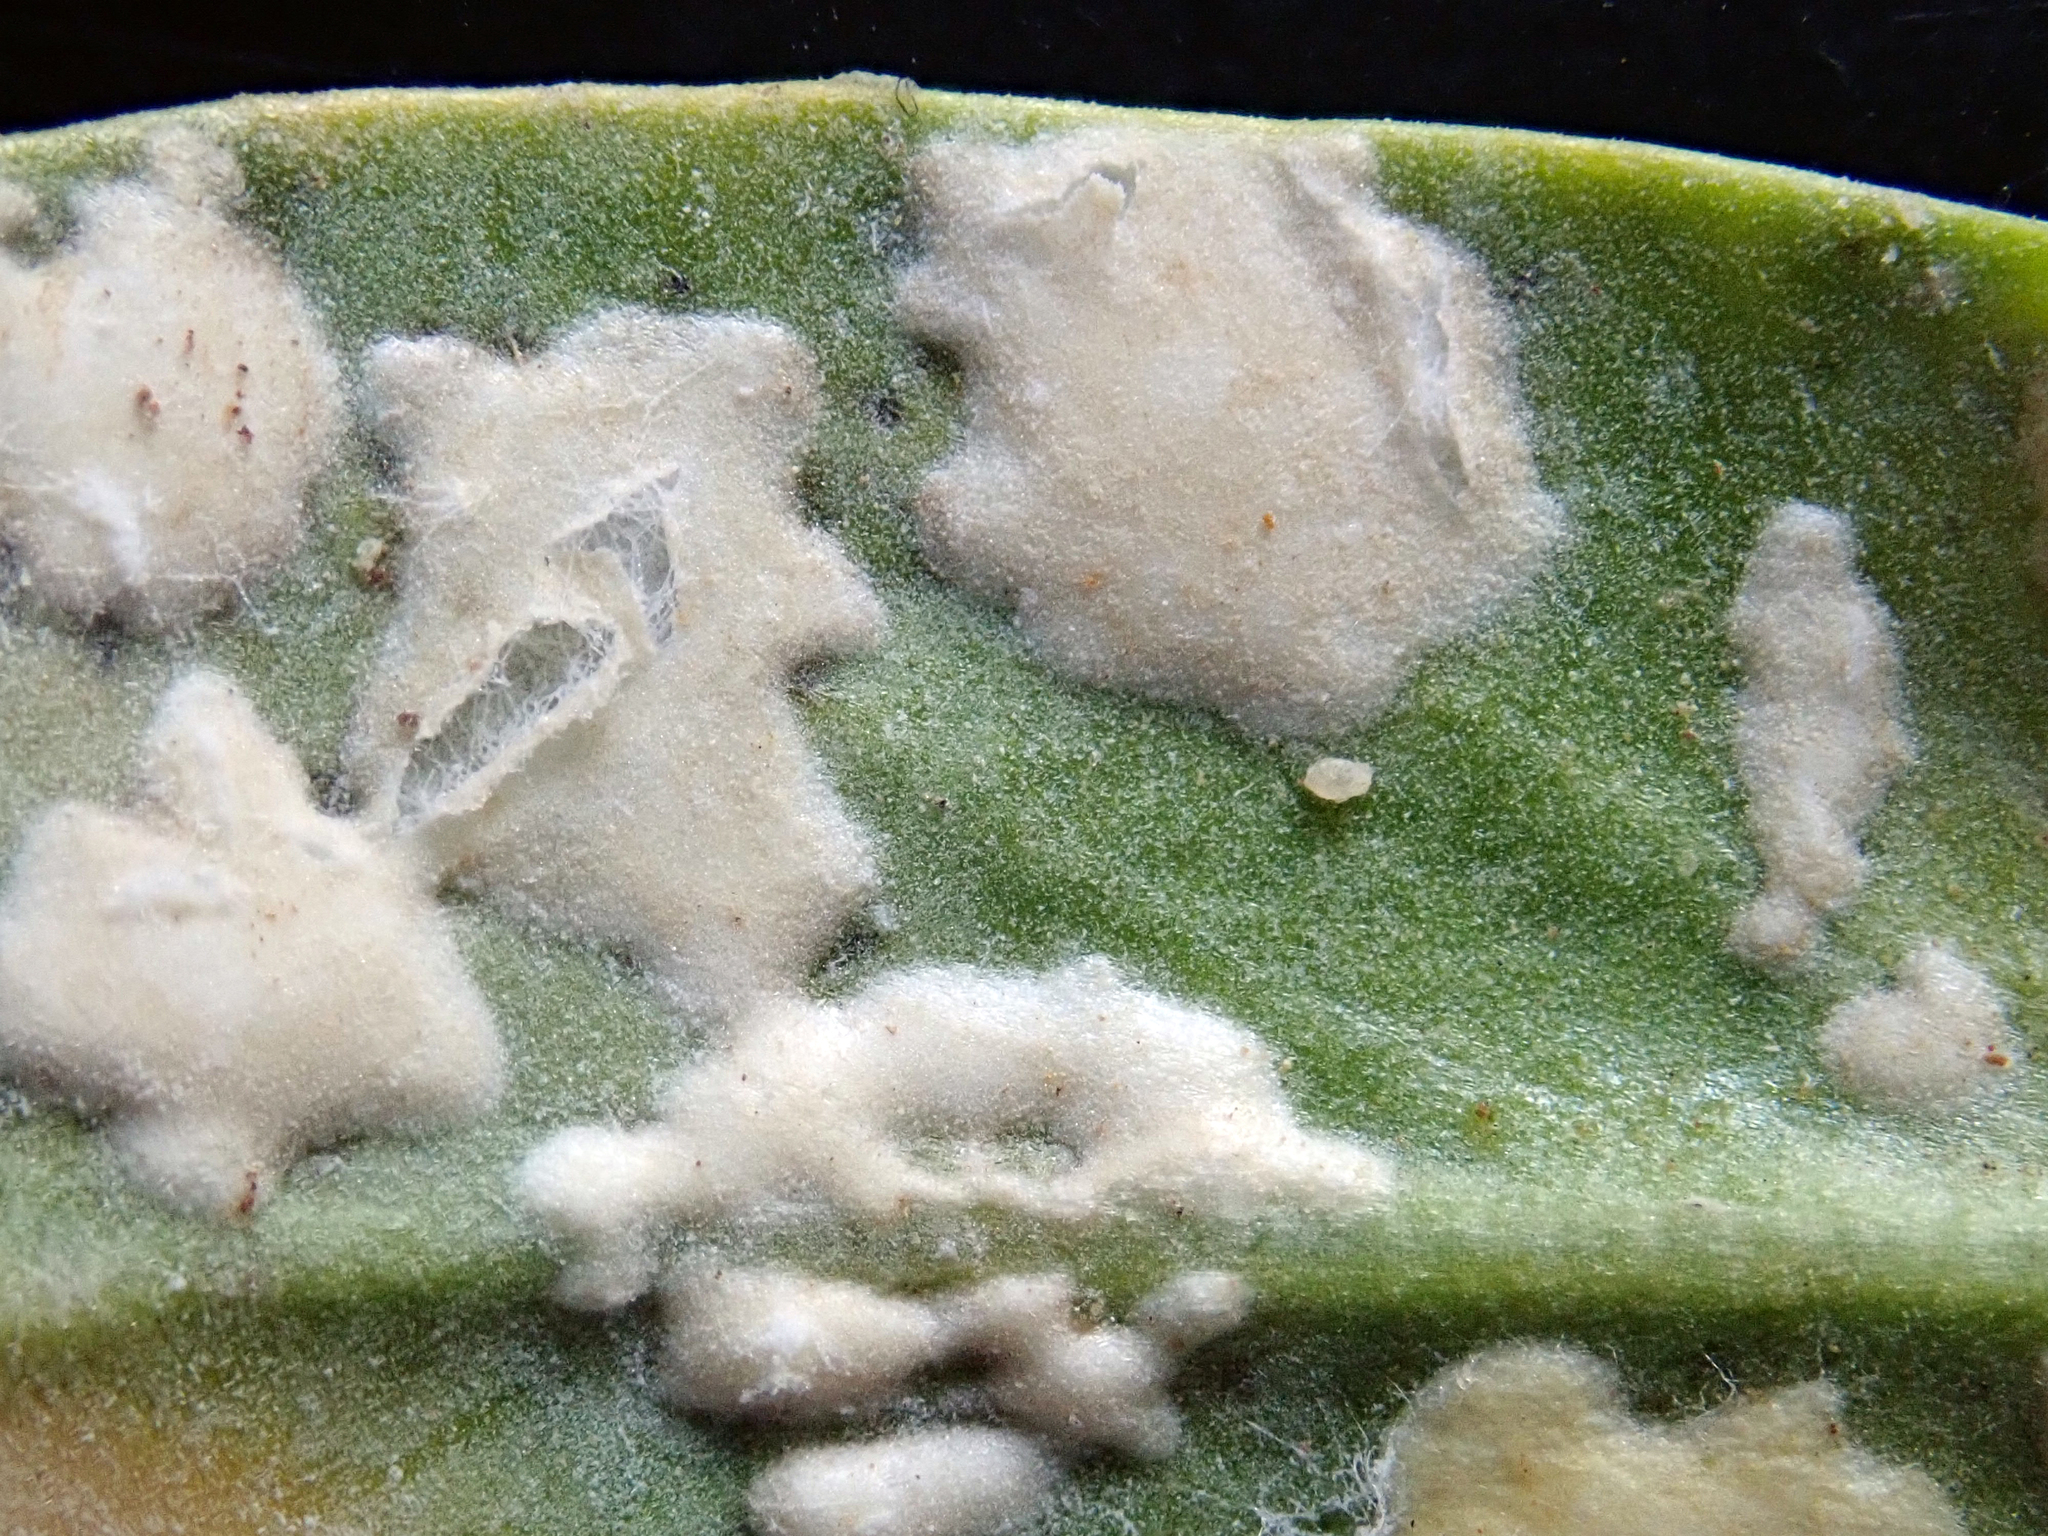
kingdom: Chromista
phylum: Oomycota
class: Peronosporea
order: Albuginales
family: Albuginaceae
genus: Albugo
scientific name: Albugo lepidii
